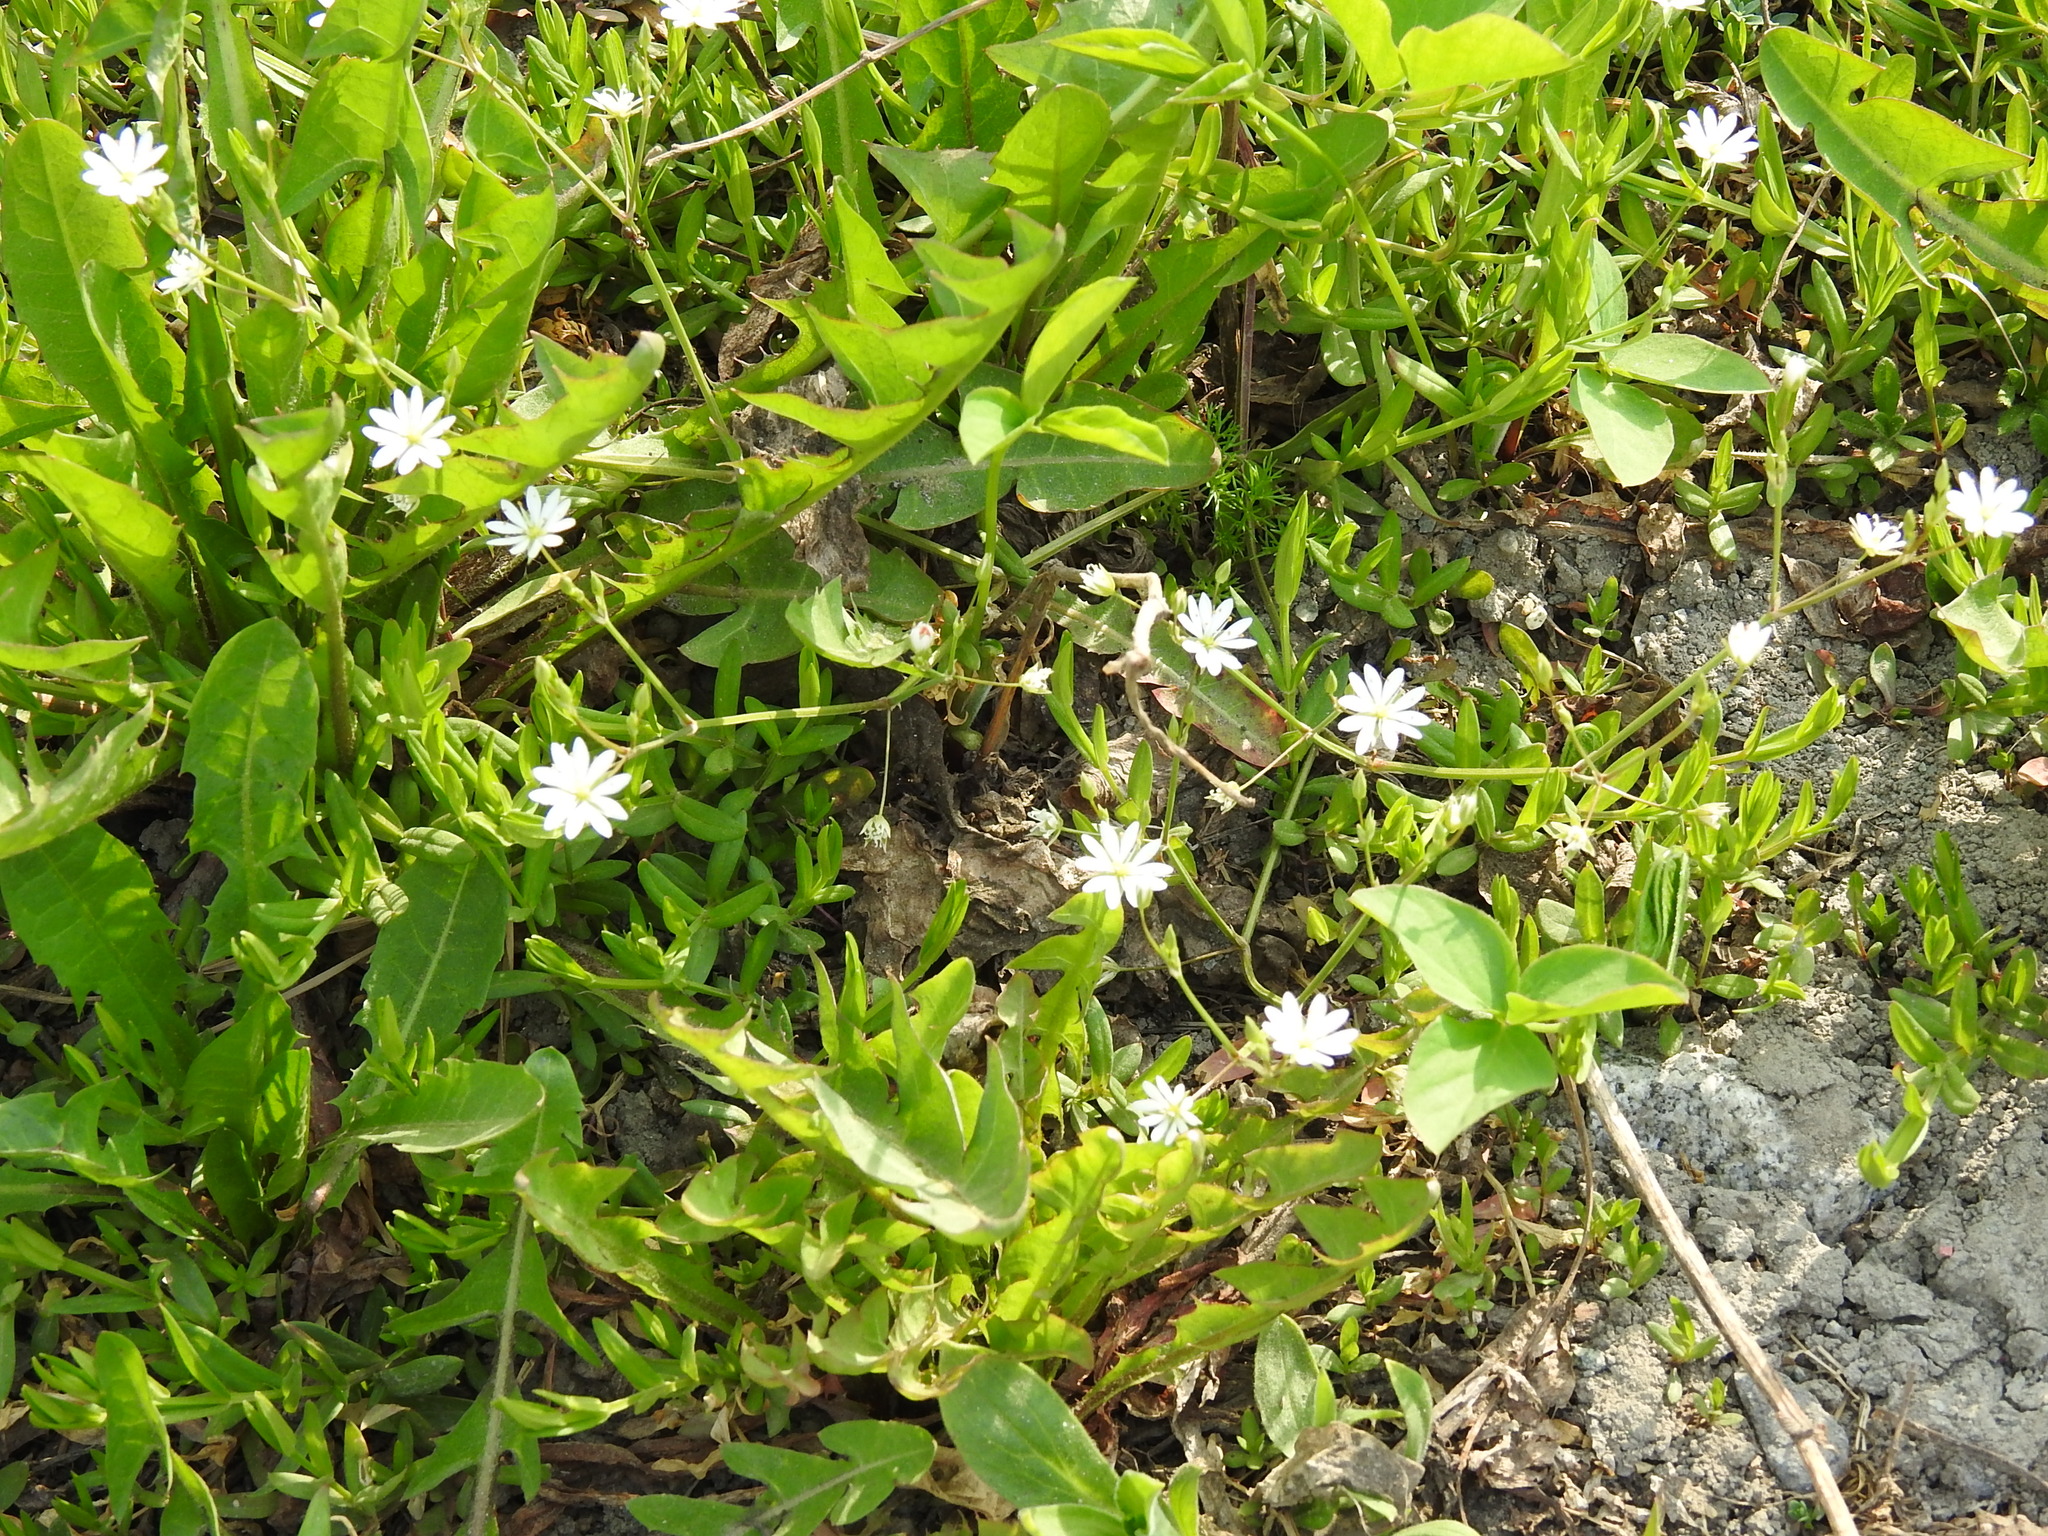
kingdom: Plantae
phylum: Tracheophyta
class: Magnoliopsida
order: Caryophyllales
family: Caryophyllaceae
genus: Stellaria
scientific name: Stellaria graminea
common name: Grass-like starwort
